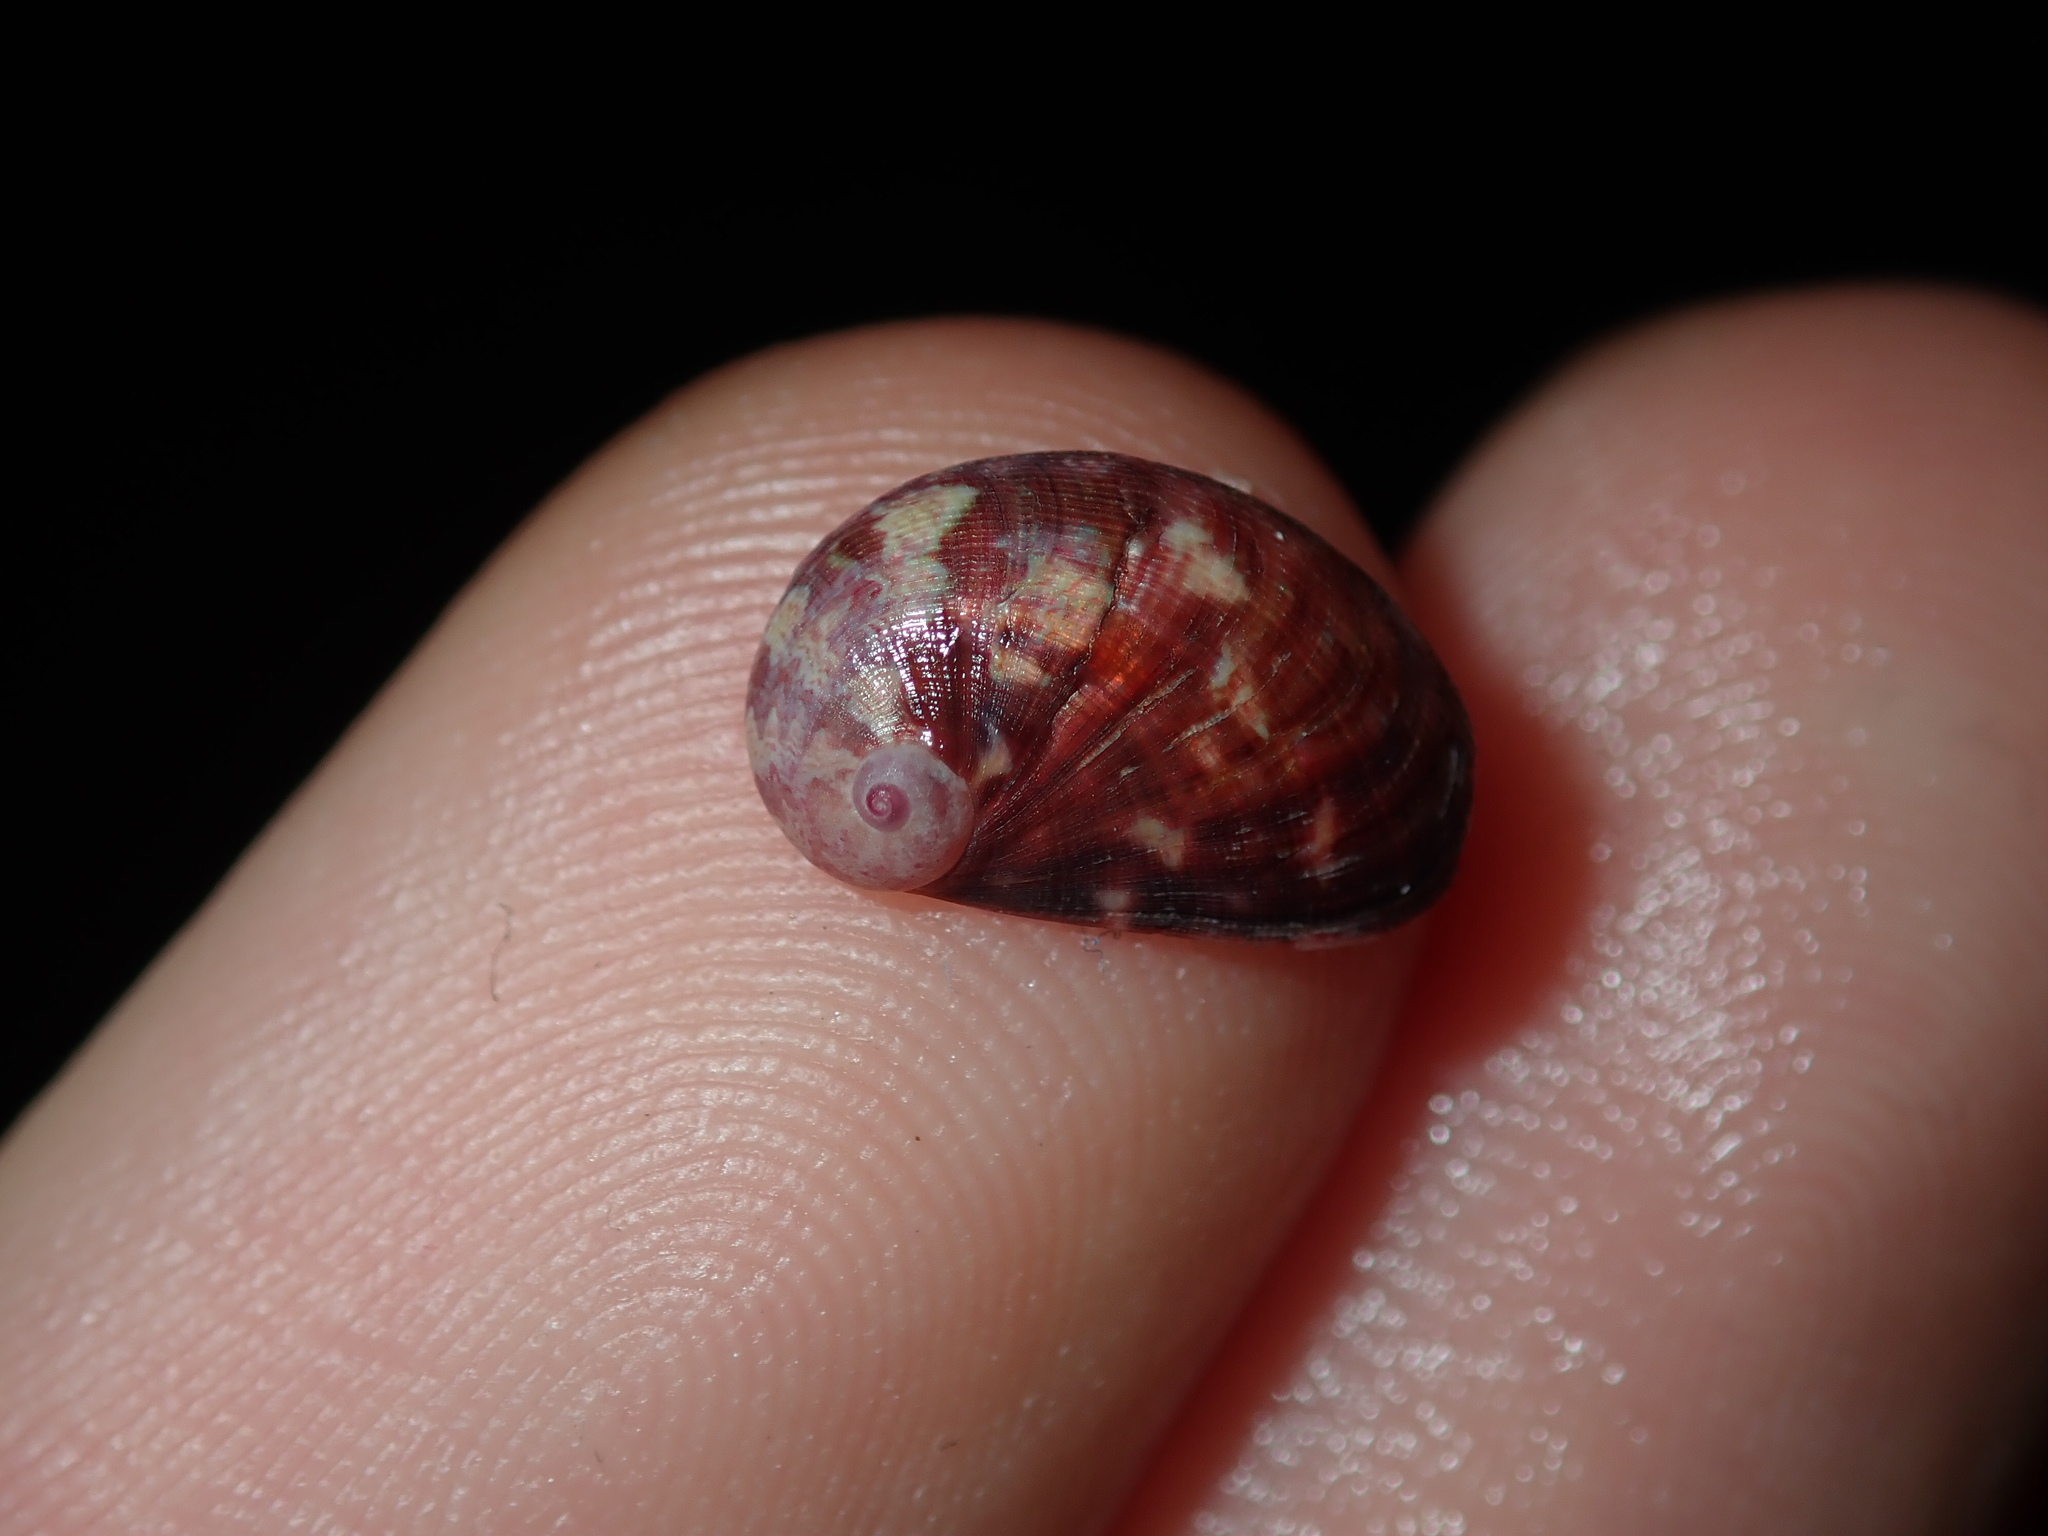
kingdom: Animalia
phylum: Mollusca
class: Gastropoda
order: Trochida
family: Trochidae
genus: Stomatella
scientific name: Stomatella impertusa
